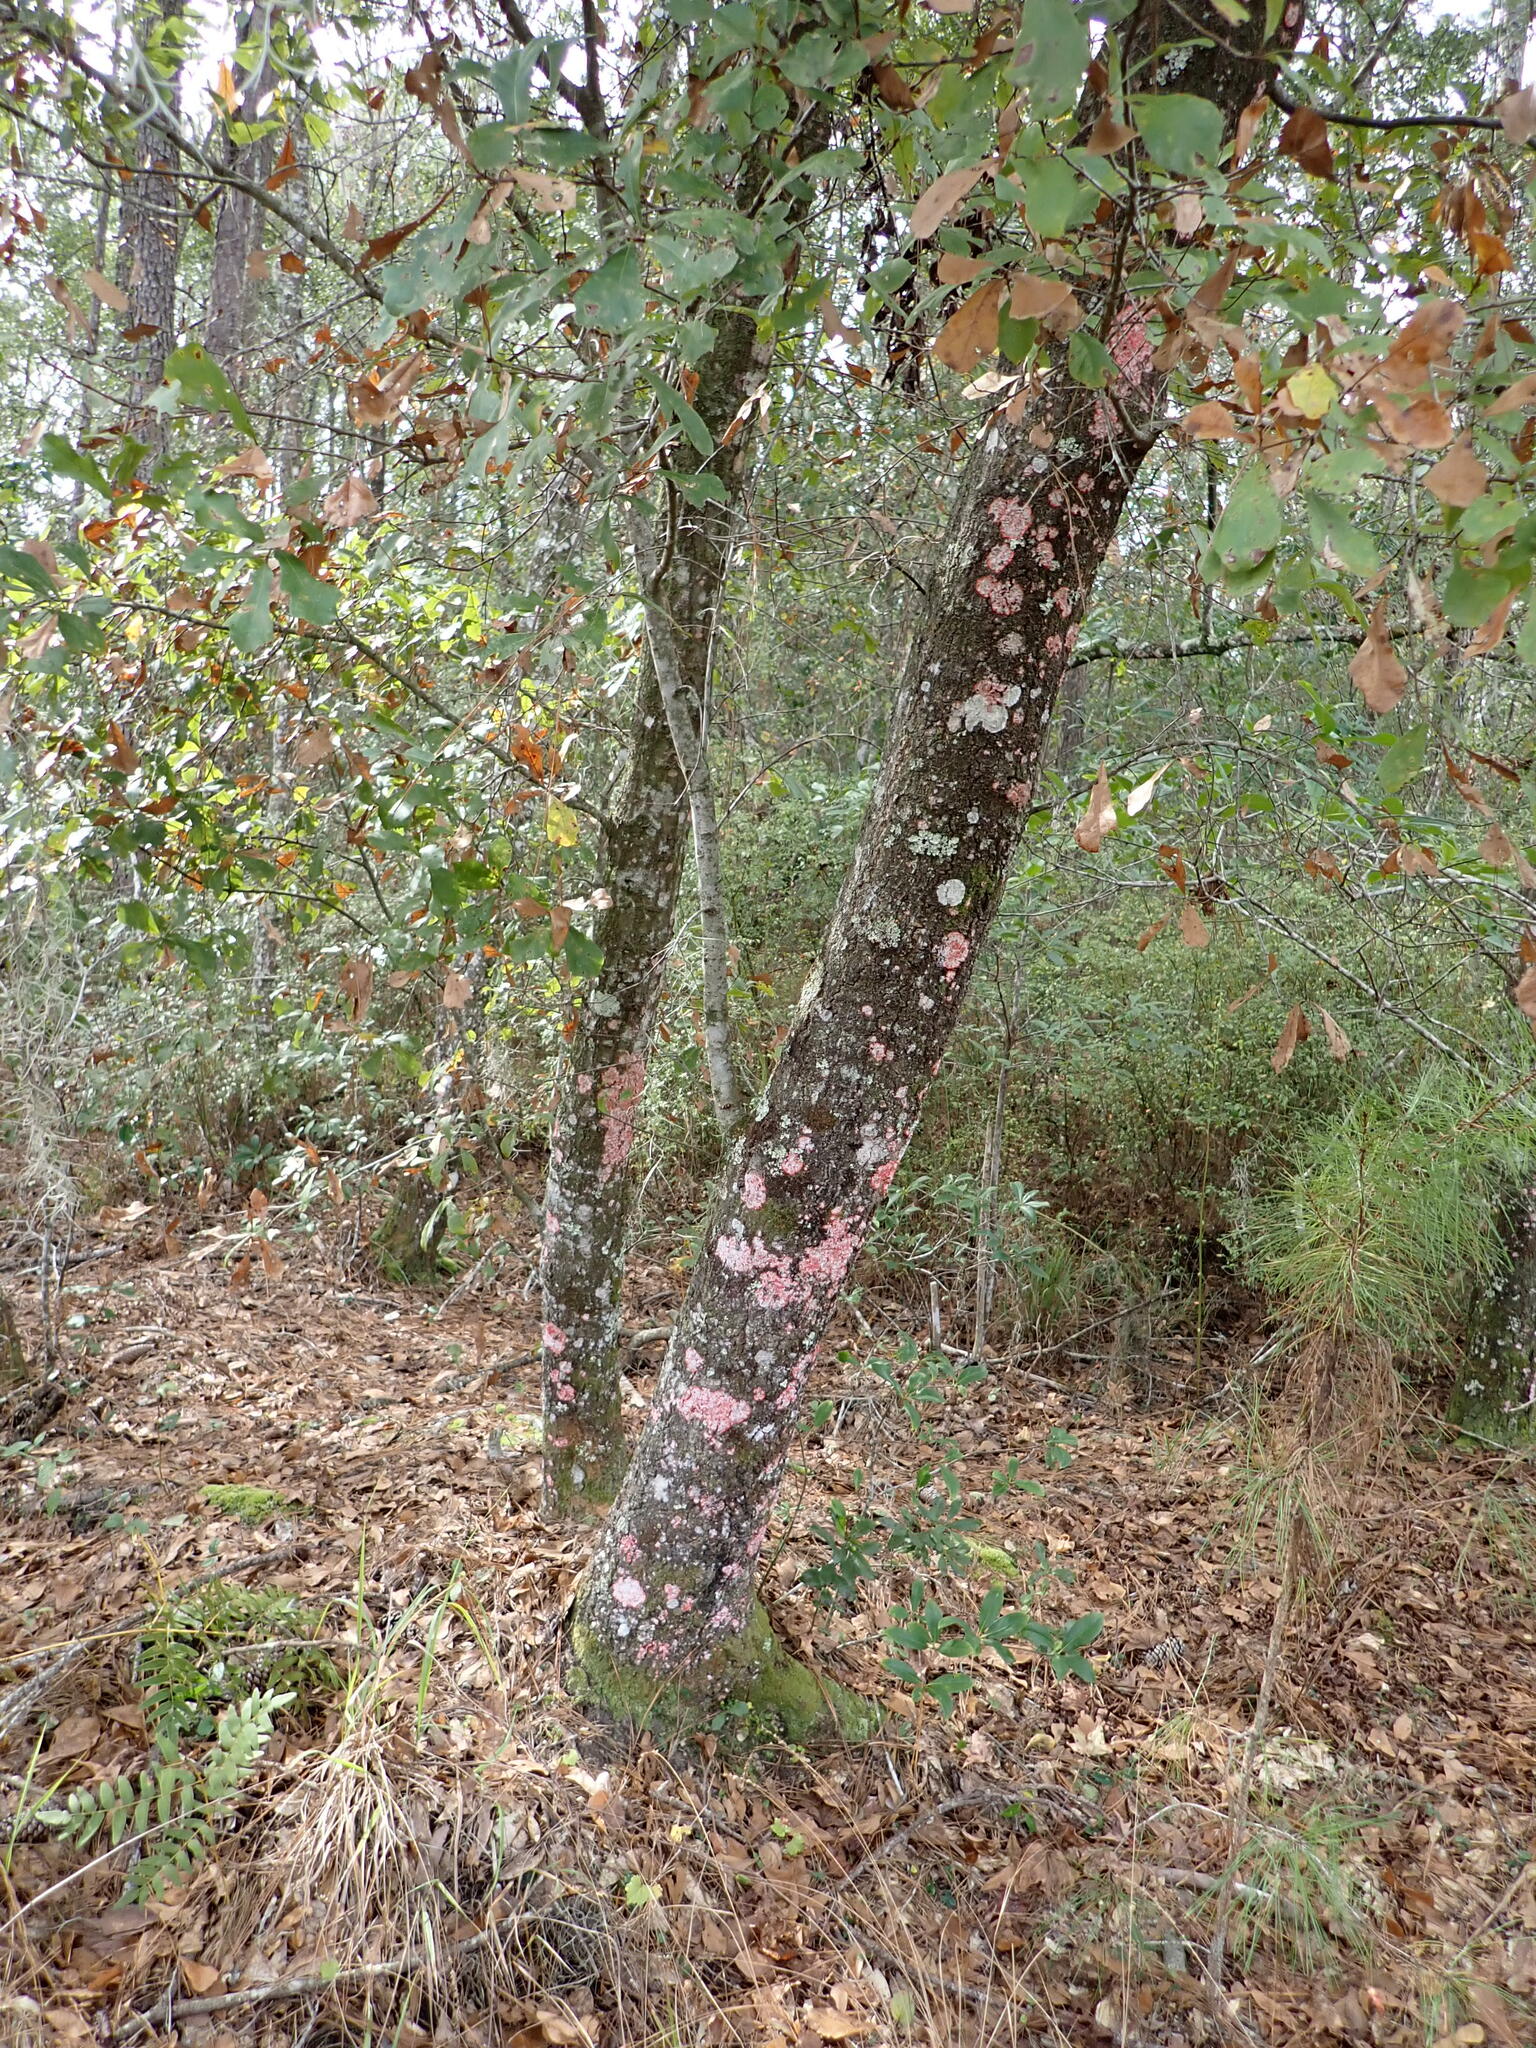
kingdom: Fungi
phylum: Ascomycota
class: Arthoniomycetes
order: Arthoniales
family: Arthoniaceae
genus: Herpothallon
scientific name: Herpothallon rubrocinctum
